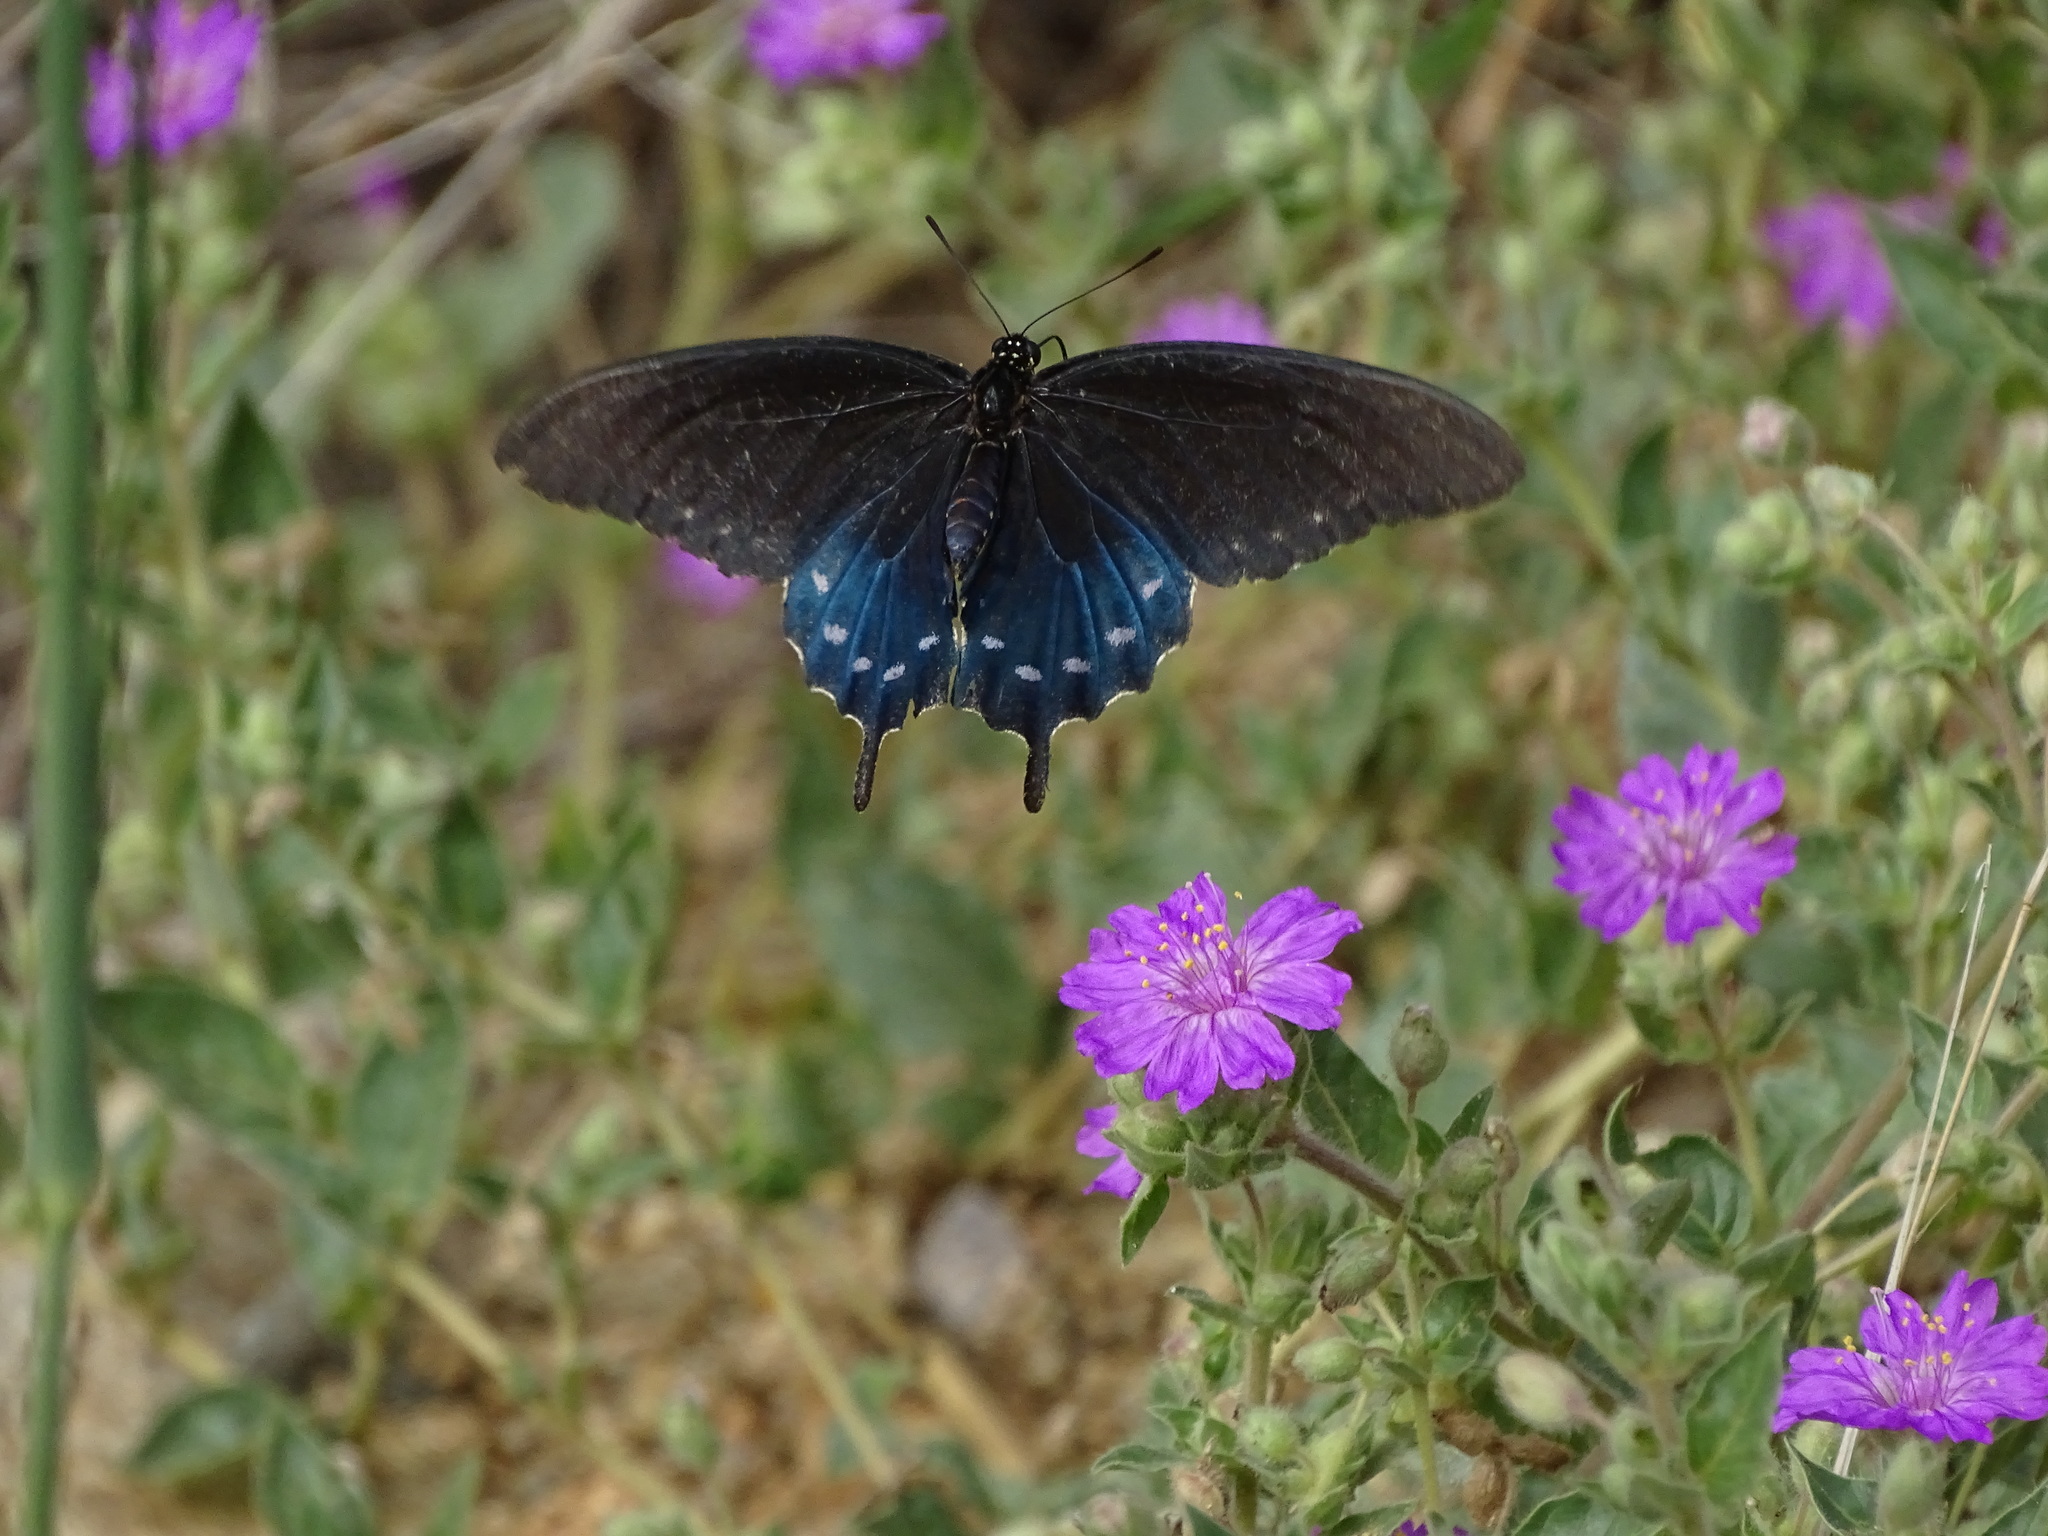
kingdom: Animalia
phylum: Arthropoda
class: Insecta
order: Lepidoptera
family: Papilionidae
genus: Battus
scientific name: Battus philenor
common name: Pipevine swallowtail
